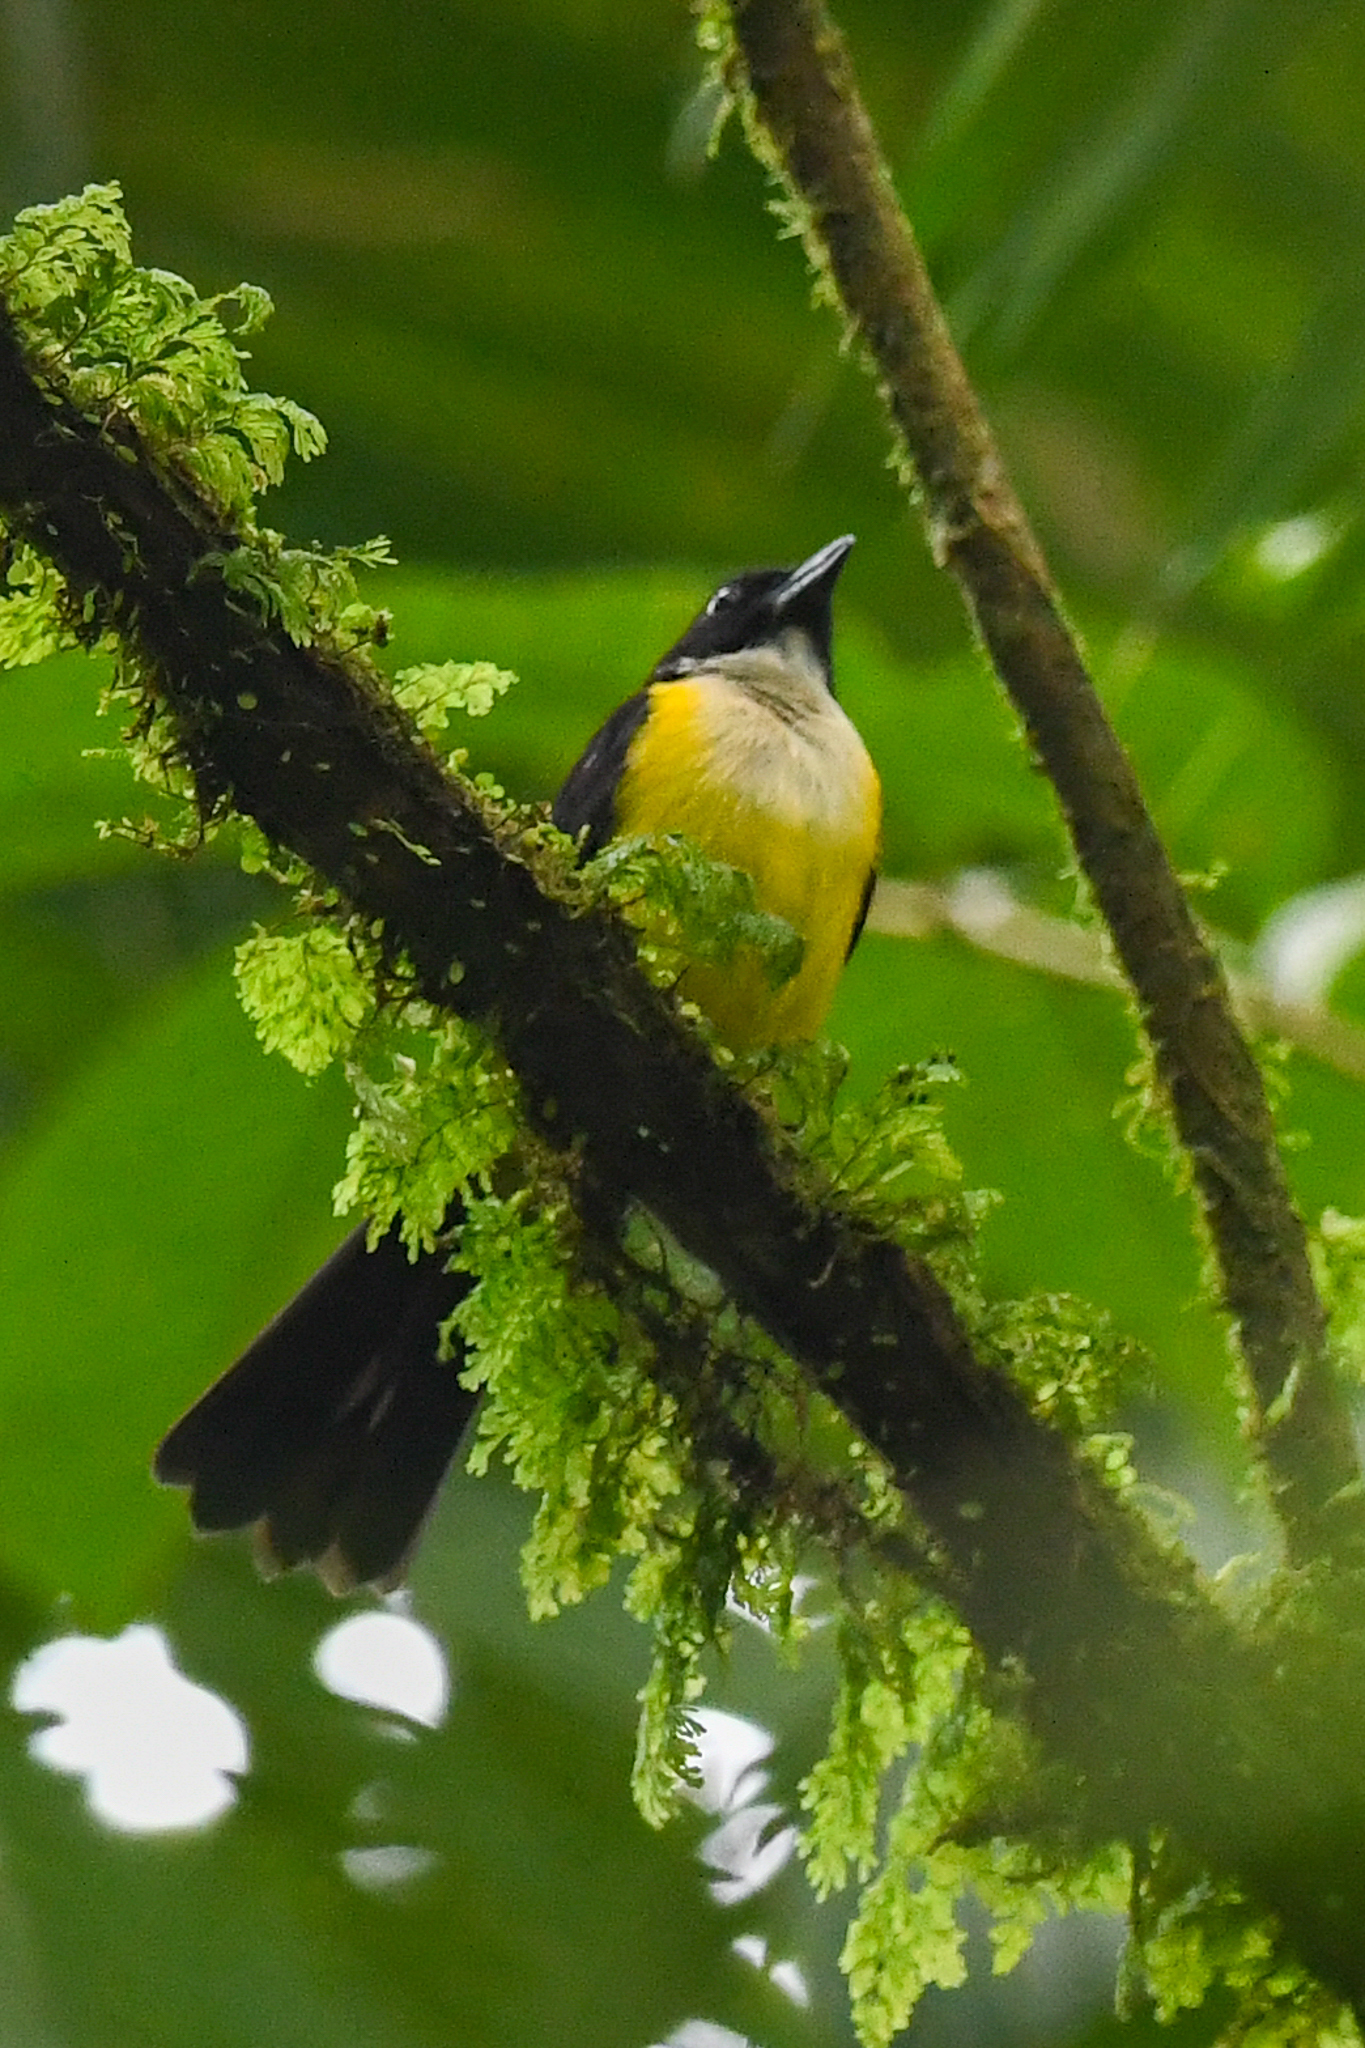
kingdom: Animalia
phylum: Chordata
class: Aves
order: Passeriformes
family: Thraupidae
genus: Lanio
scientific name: Lanio leucothorax
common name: White-throated shrike-tanager
